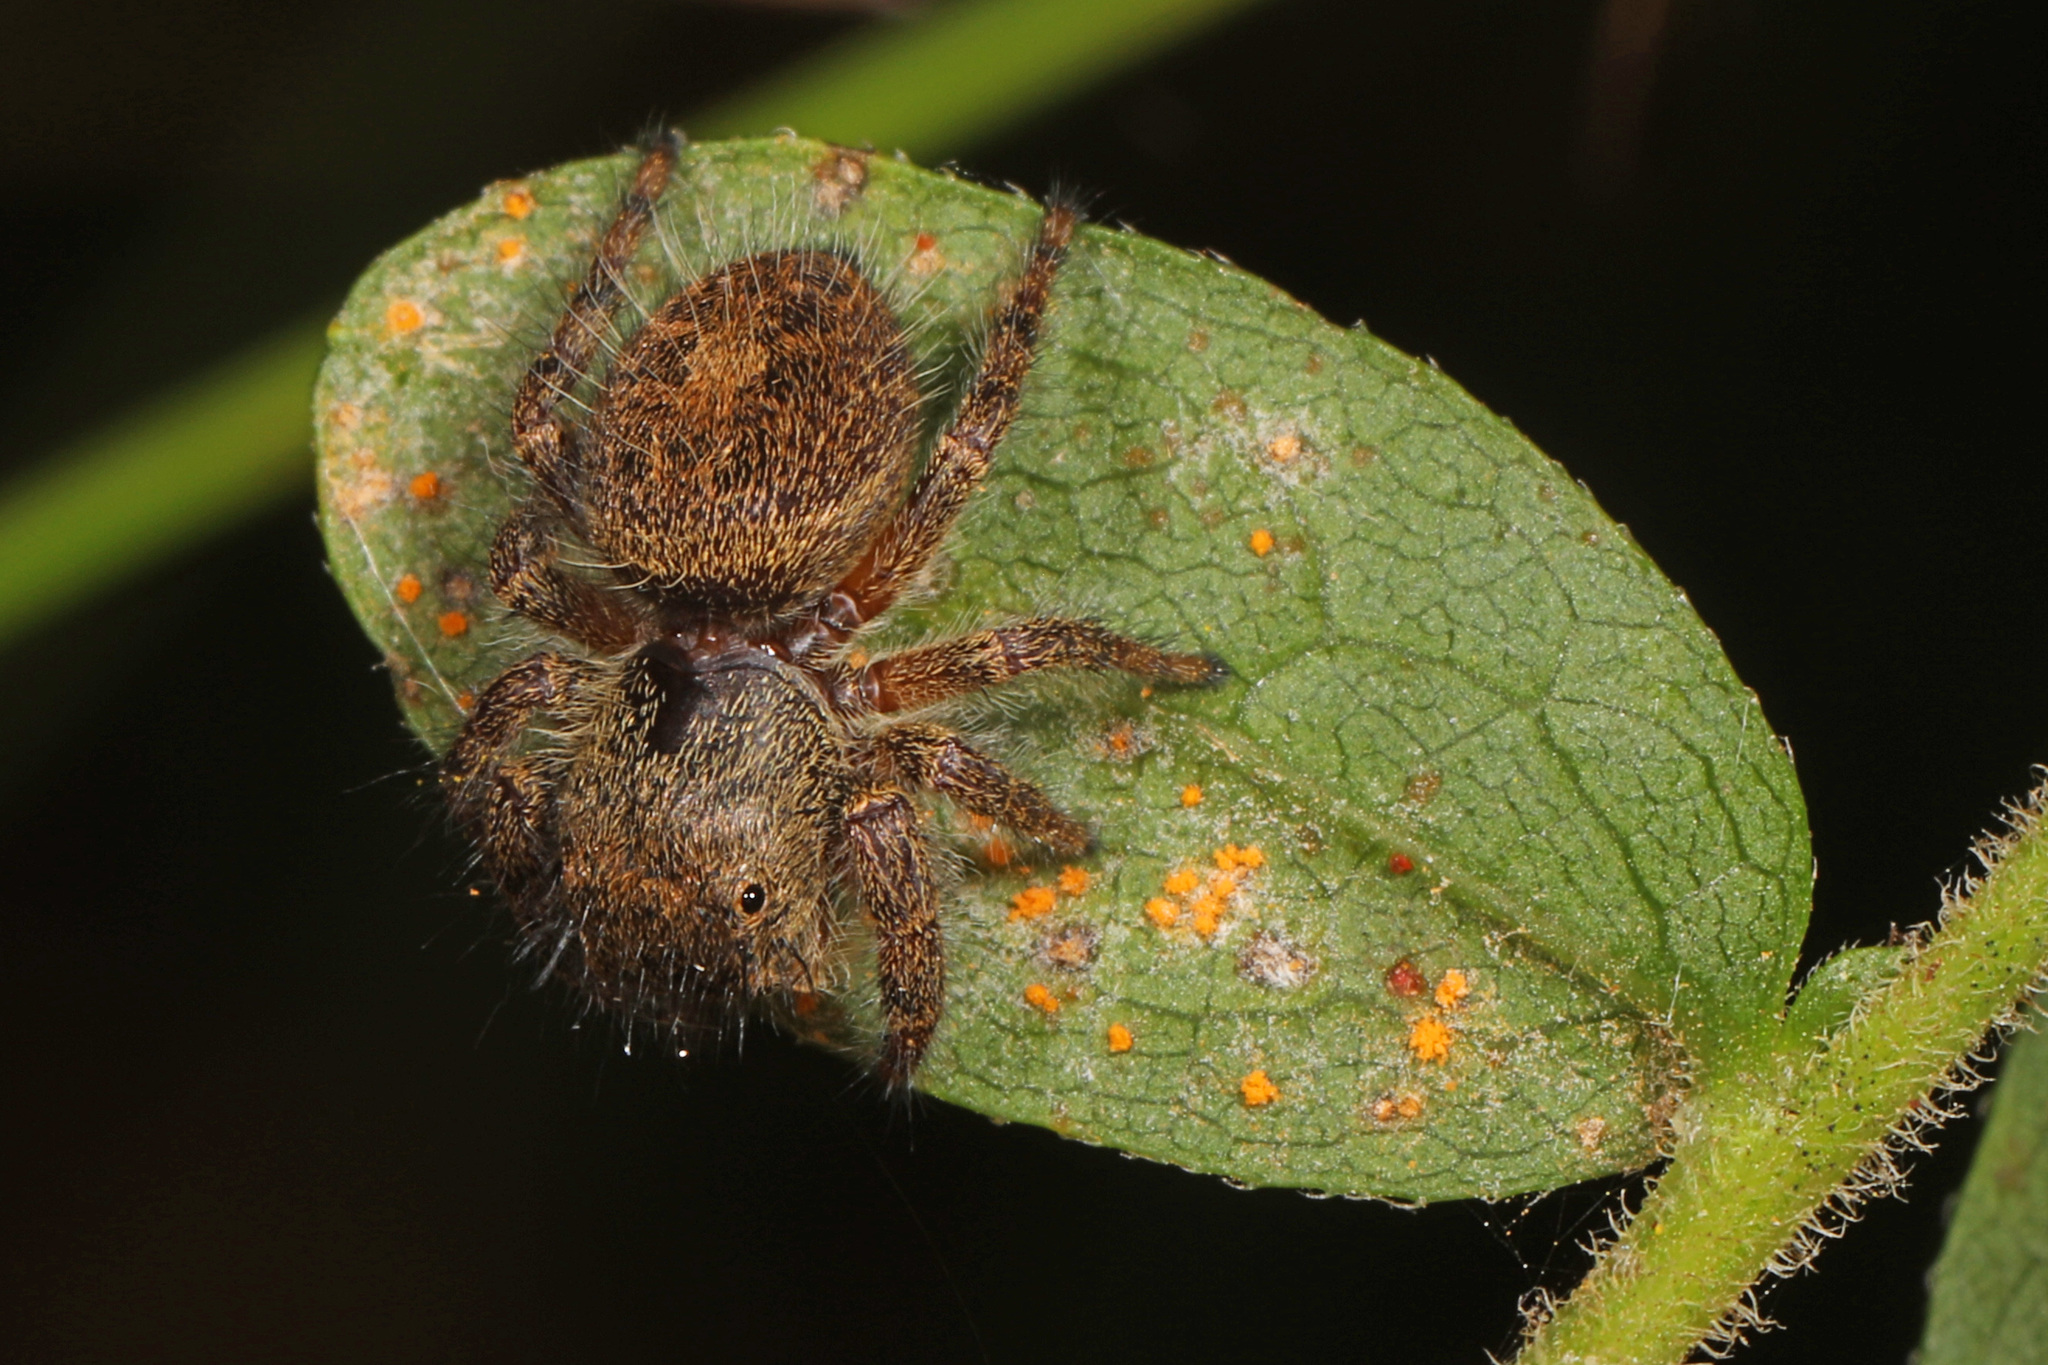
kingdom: Animalia
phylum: Arthropoda
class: Arachnida
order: Araneae
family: Salticidae
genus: Phidippus
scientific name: Phidippus princeps
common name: Grayish jumping spider
